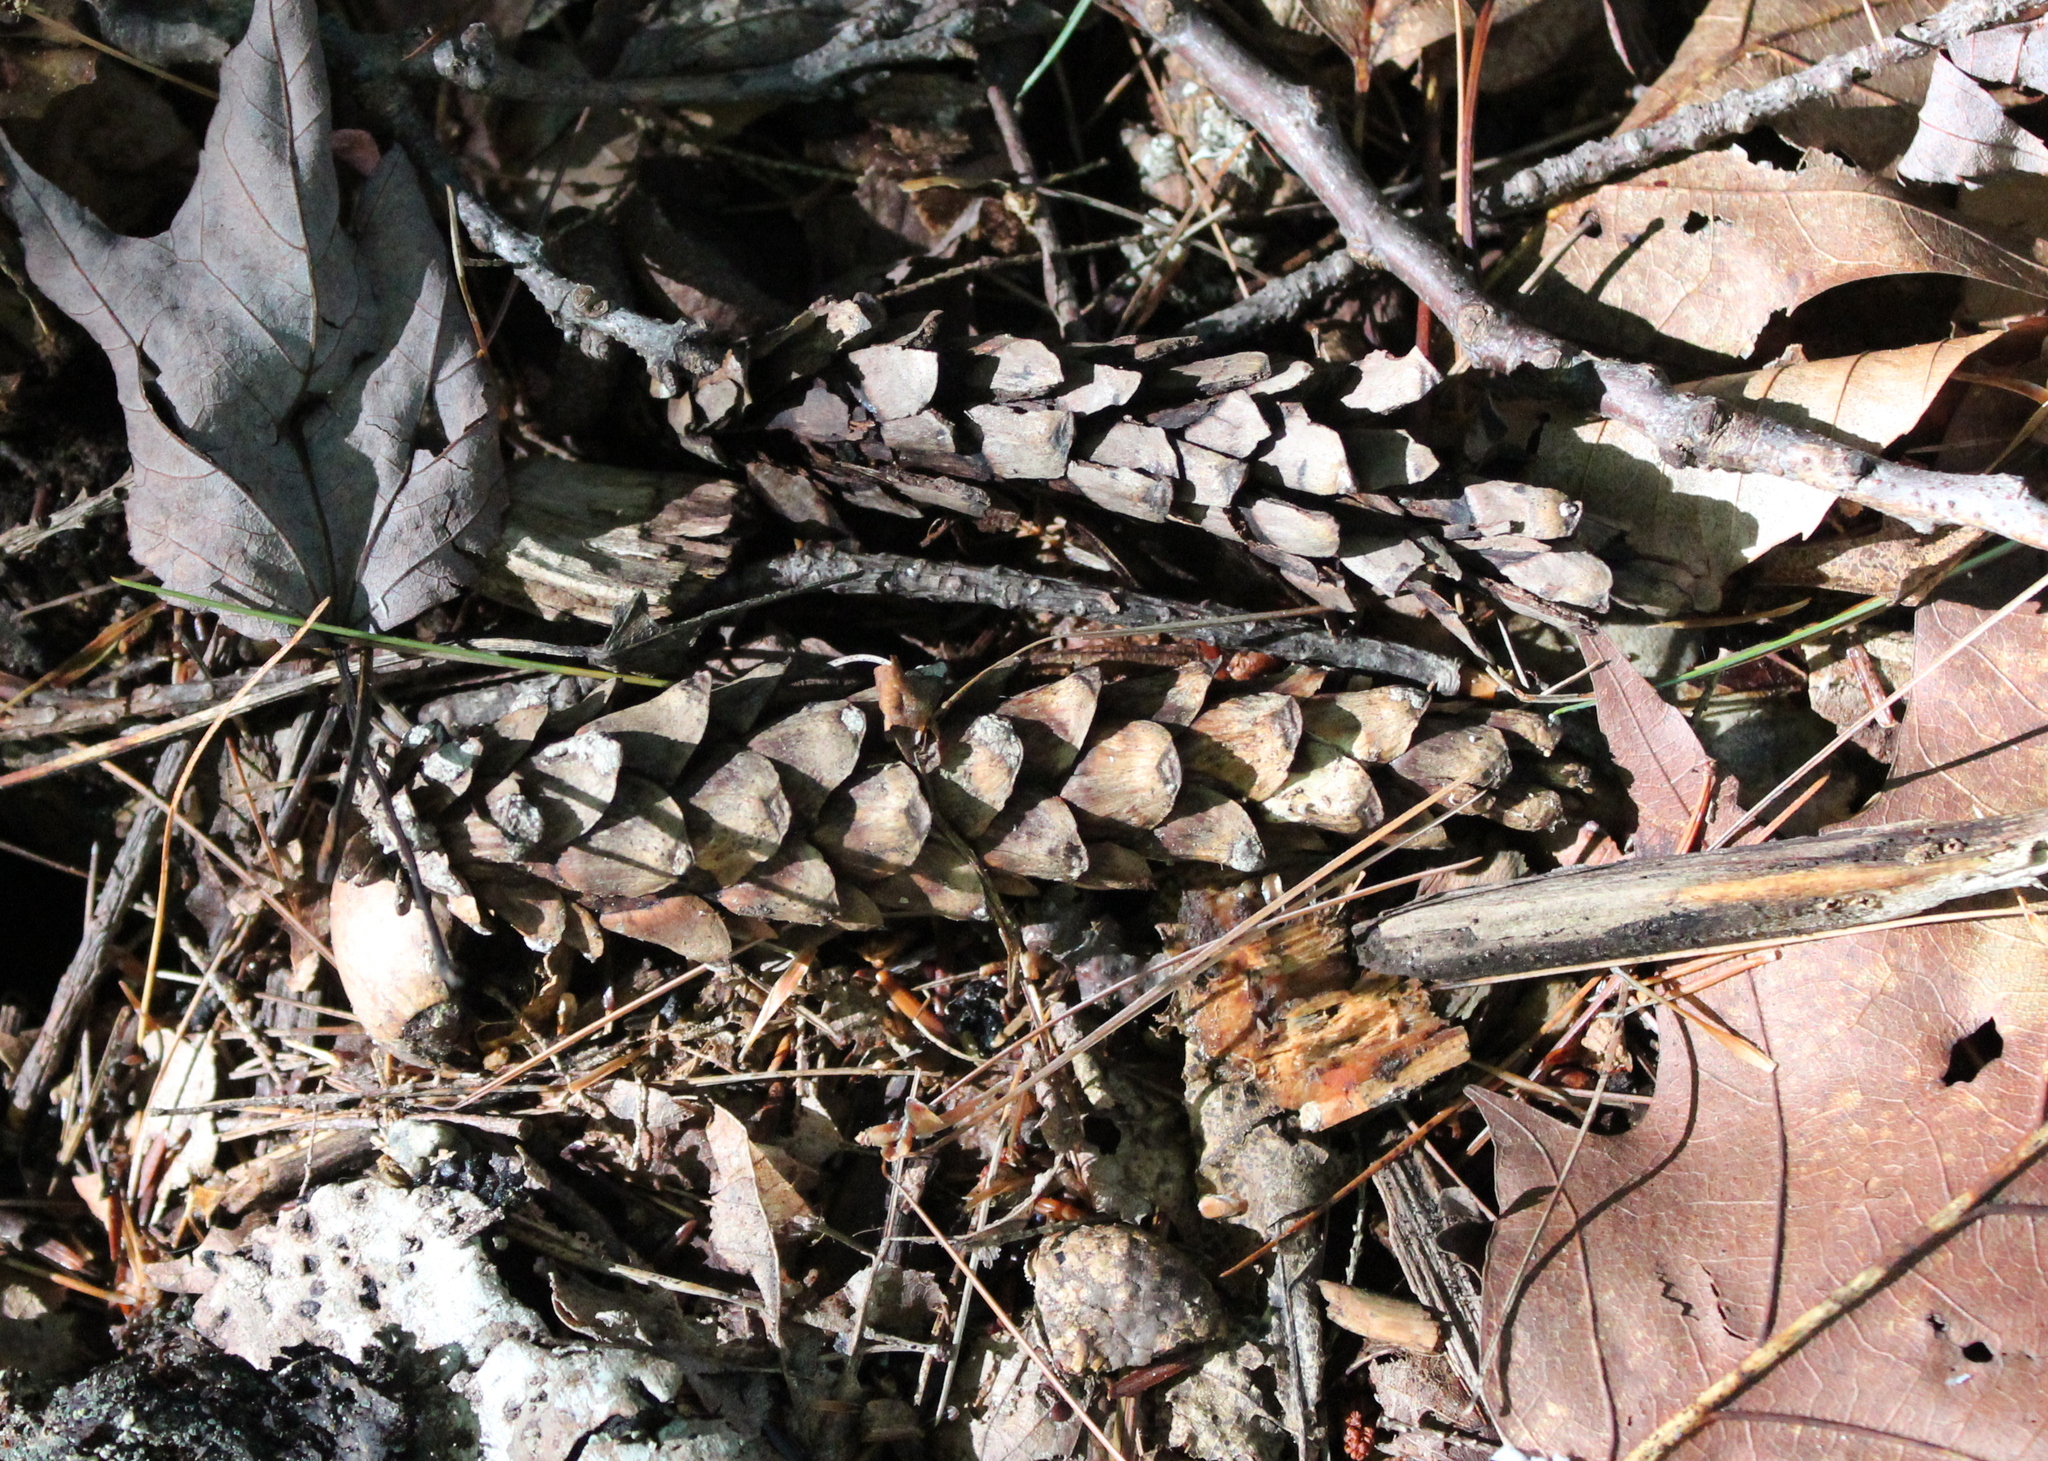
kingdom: Plantae
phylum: Tracheophyta
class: Pinopsida
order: Pinales
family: Pinaceae
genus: Pinus
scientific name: Pinus strobus
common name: Weymouth pine
